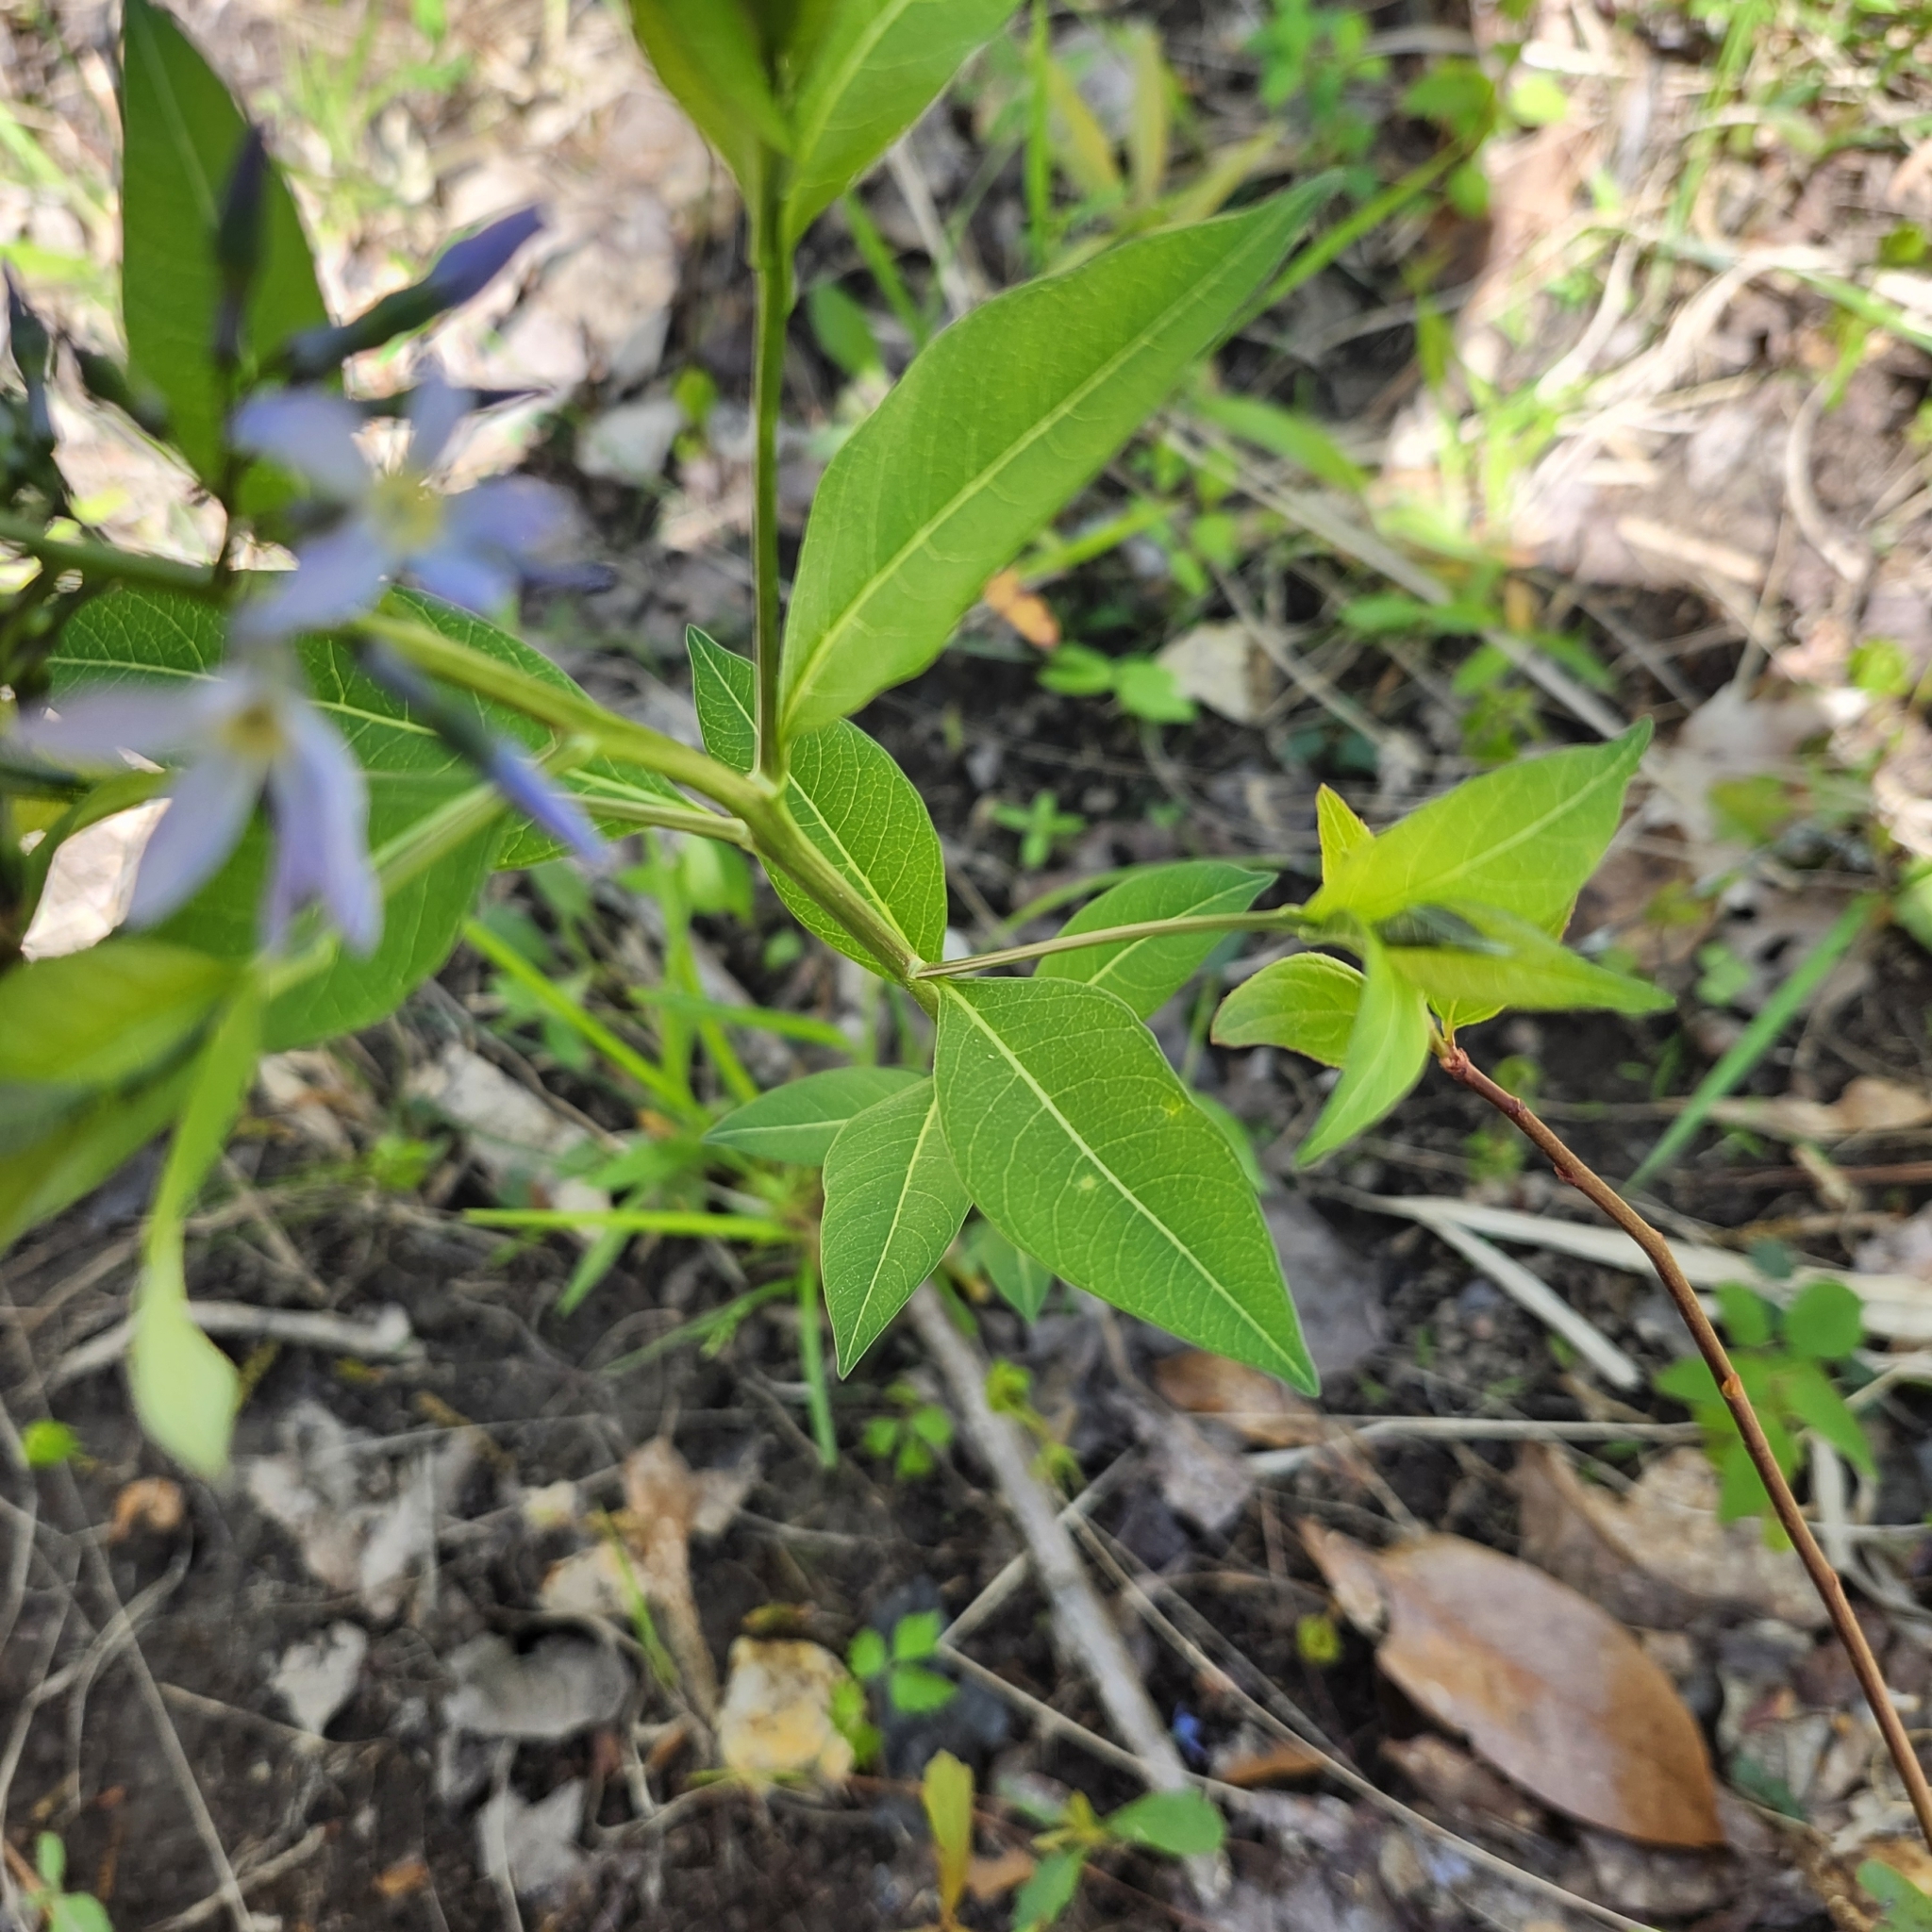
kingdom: Plantae
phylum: Tracheophyta
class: Magnoliopsida
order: Gentianales
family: Apocynaceae
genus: Amsonia
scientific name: Amsonia tabernaemontana
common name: Texas-star
